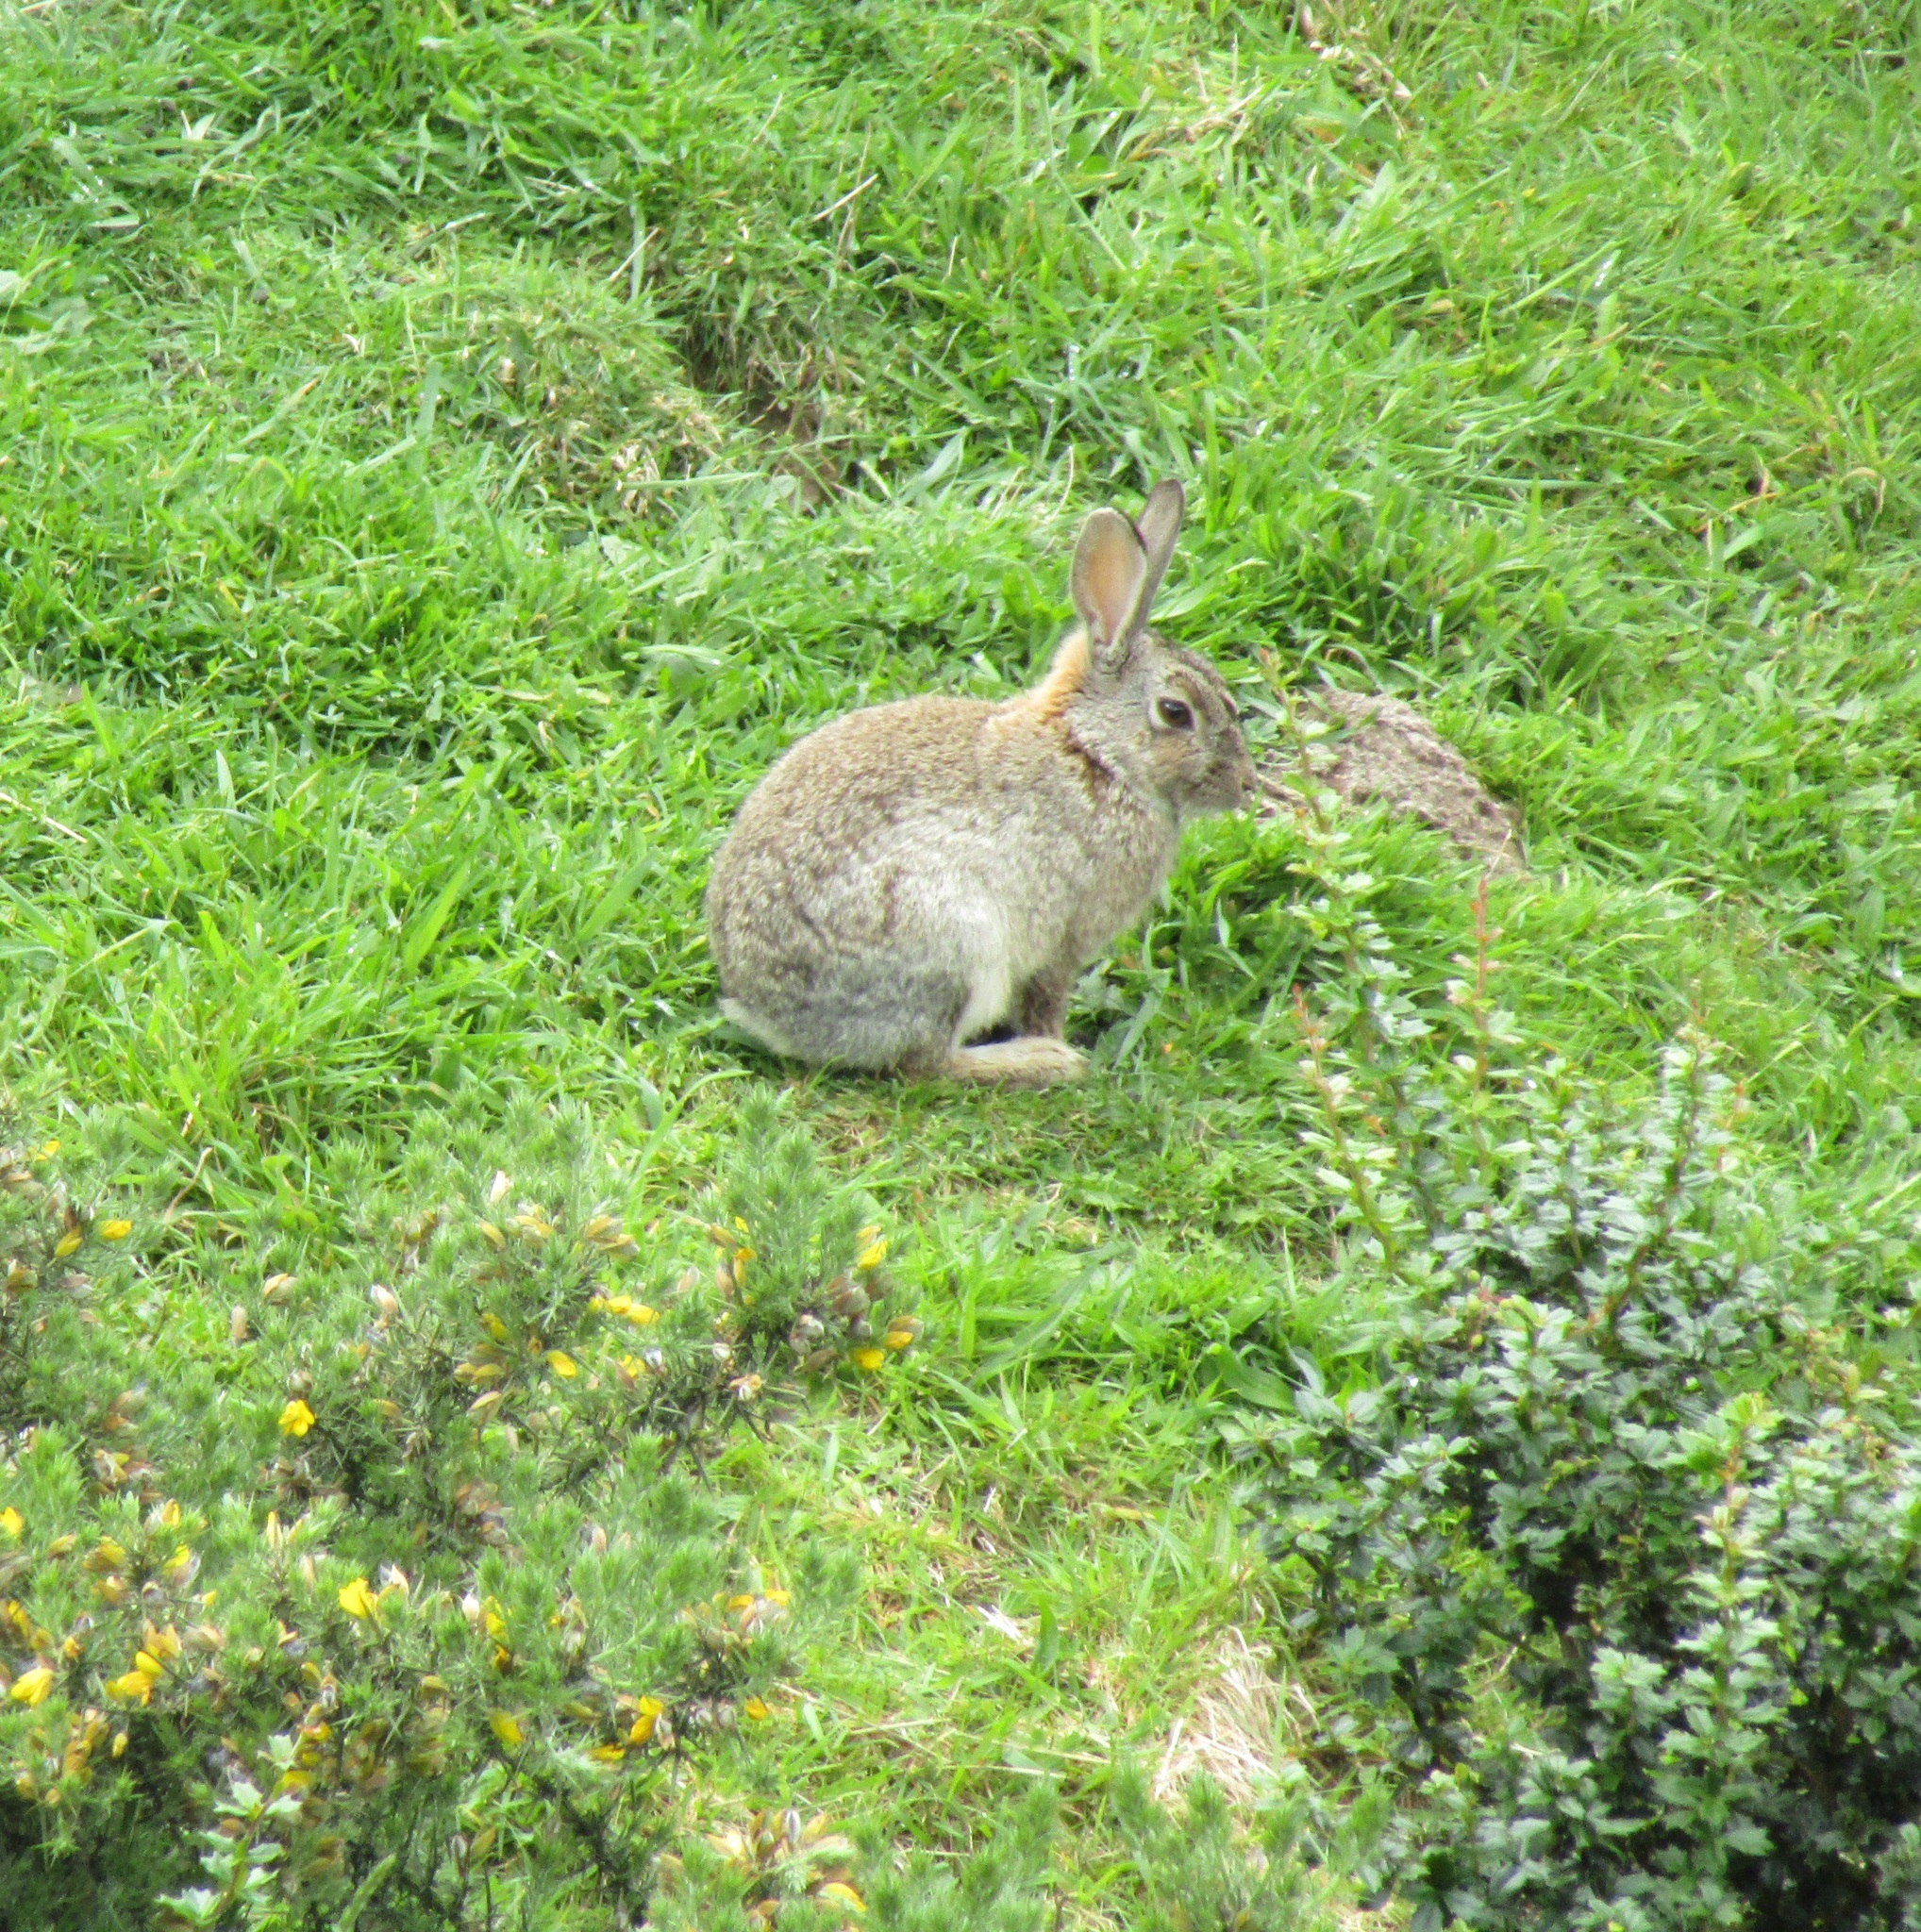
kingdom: Animalia
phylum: Chordata
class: Mammalia
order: Lagomorpha
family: Leporidae
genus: Oryctolagus
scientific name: Oryctolagus cuniculus
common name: European rabbit
